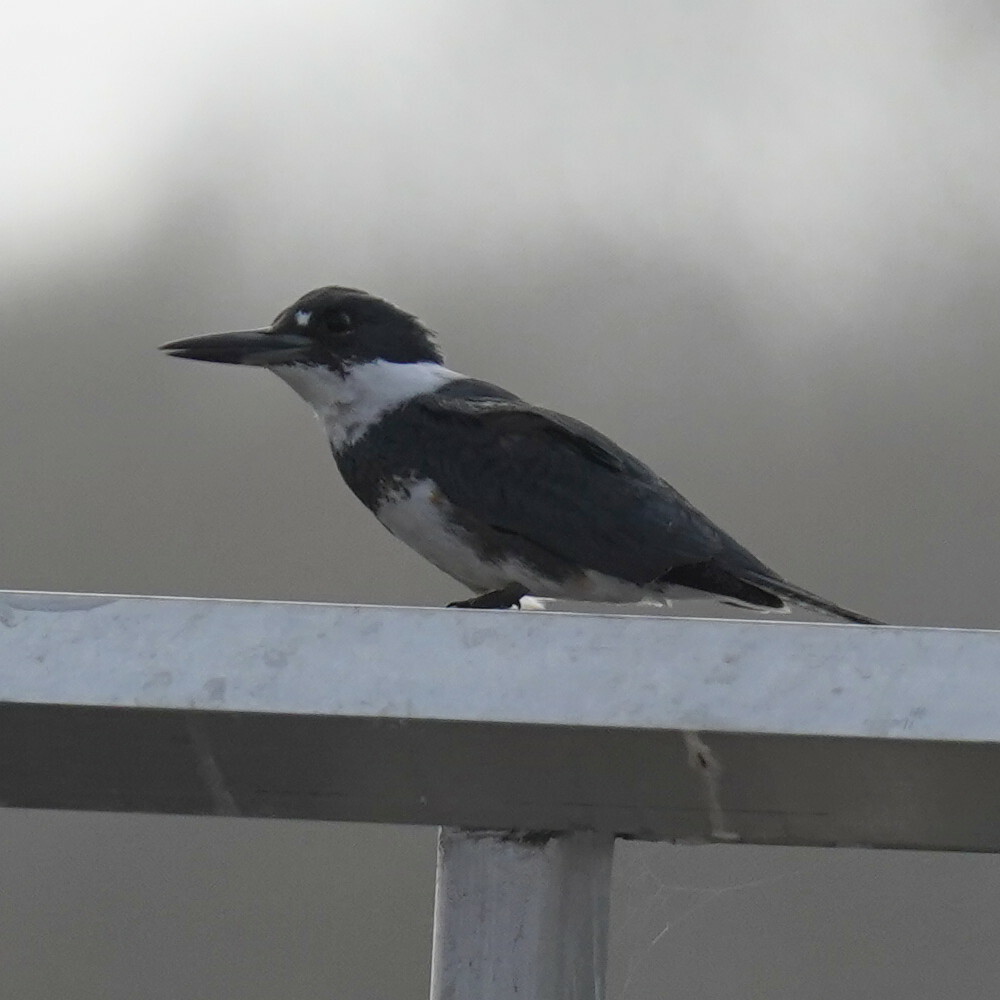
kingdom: Animalia
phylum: Chordata
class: Aves
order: Coraciiformes
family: Alcedinidae
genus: Megaceryle
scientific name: Megaceryle alcyon
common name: Belted kingfisher
